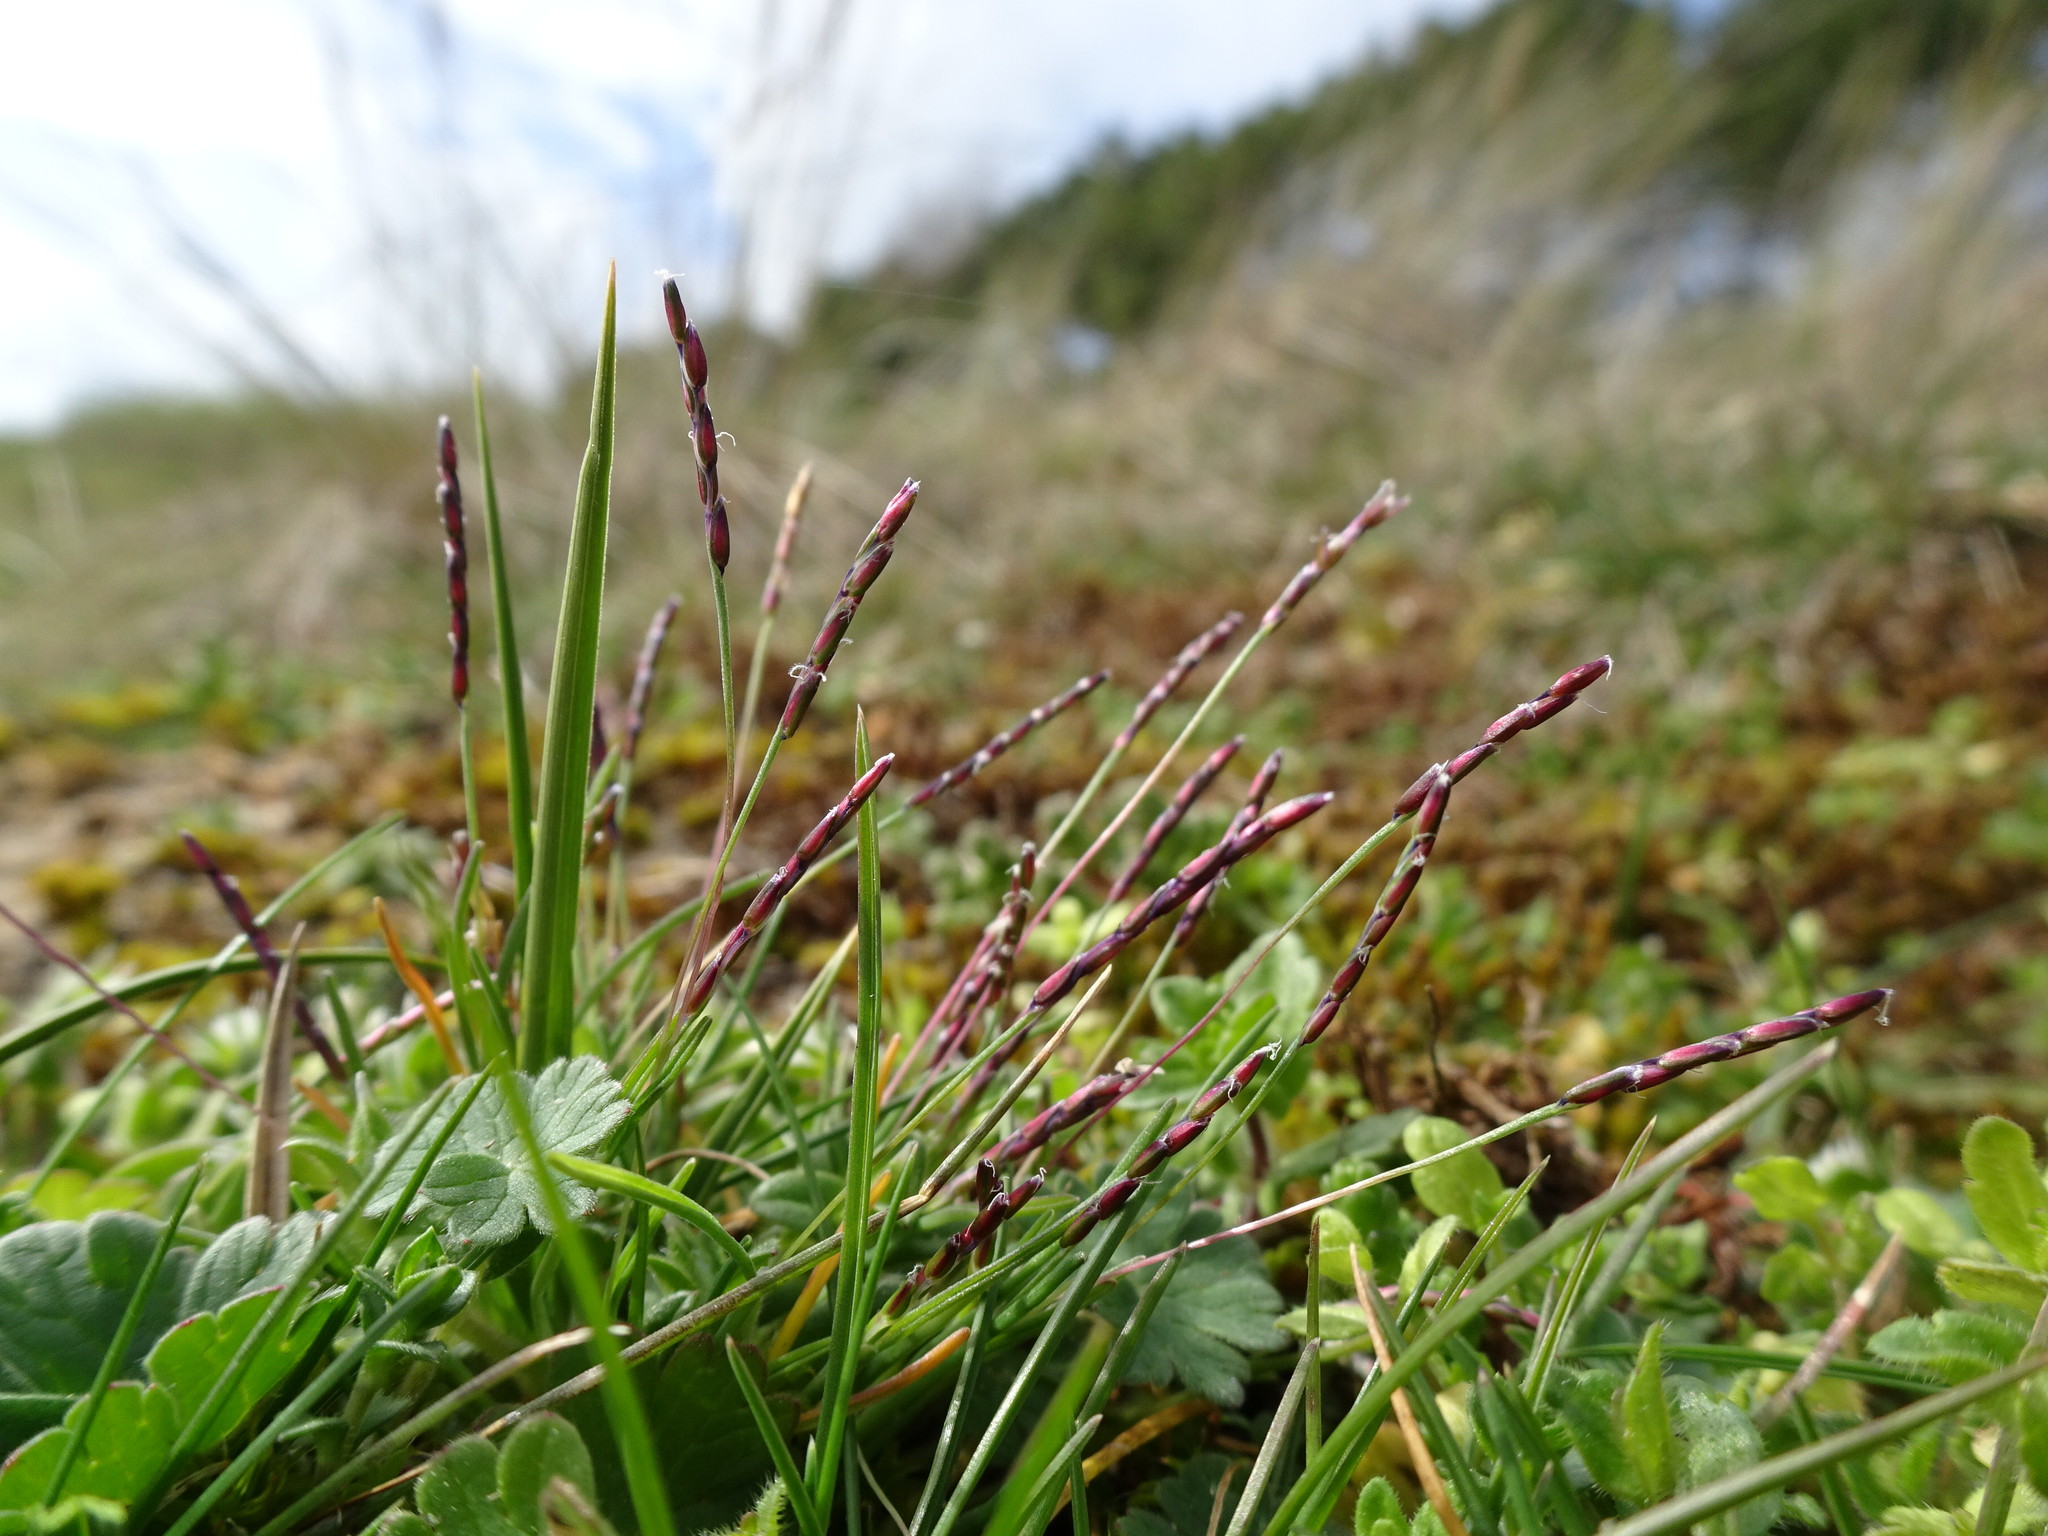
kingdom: Plantae
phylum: Tracheophyta
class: Liliopsida
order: Poales
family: Poaceae
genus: Mibora
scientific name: Mibora minima
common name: Early sand-grass
